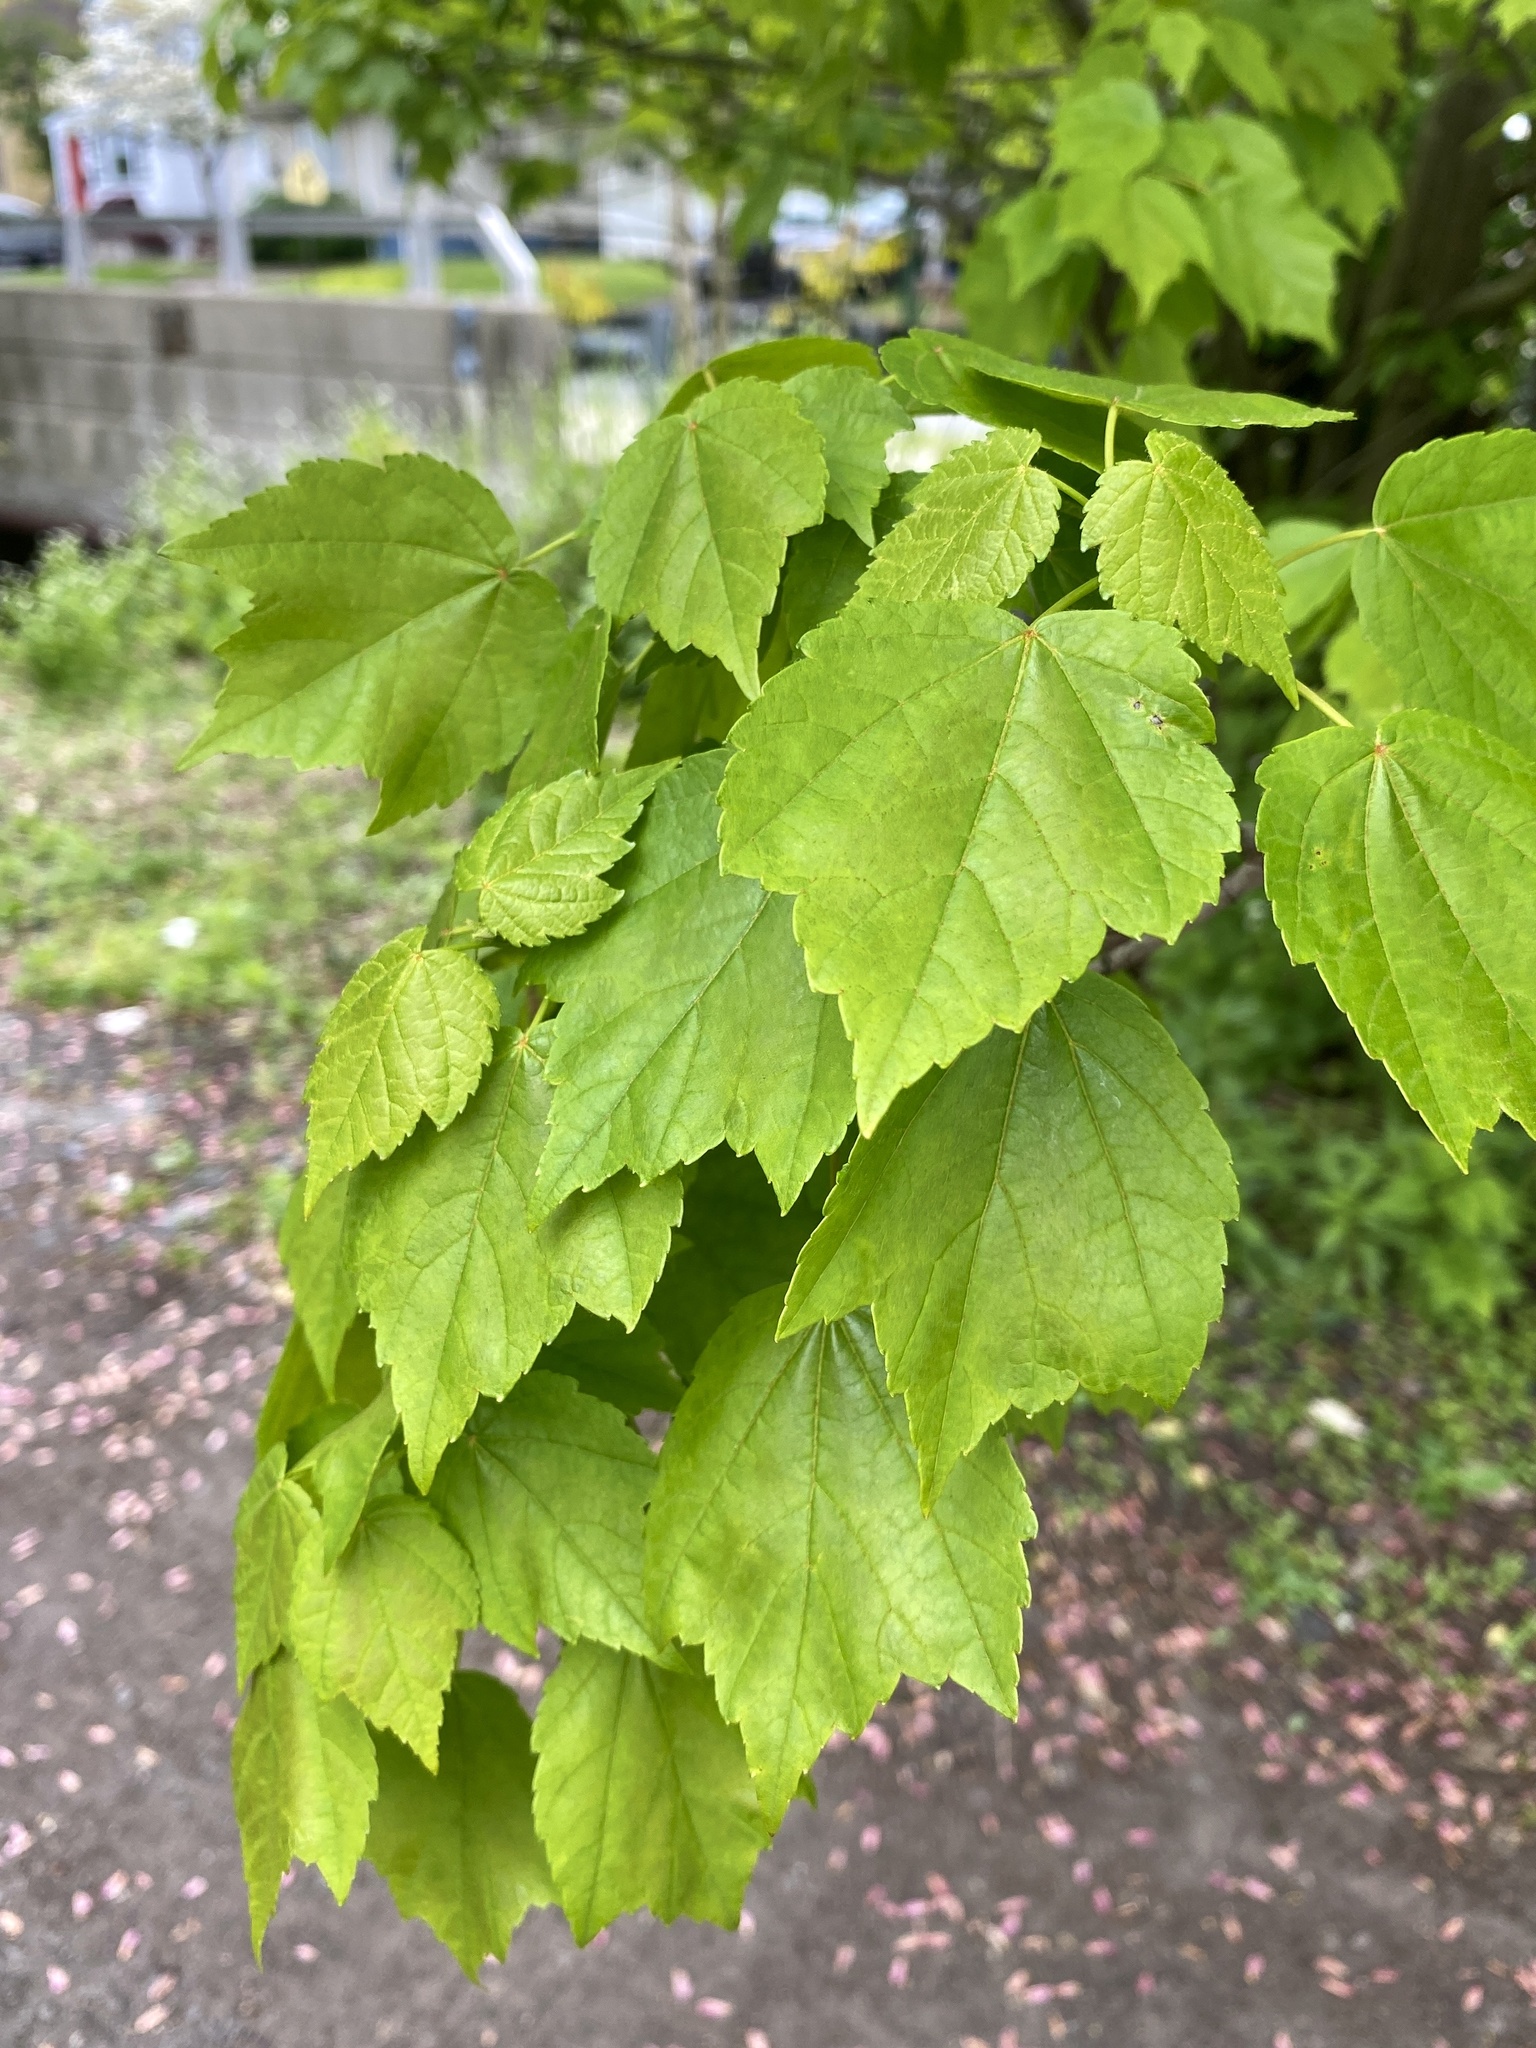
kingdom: Plantae
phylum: Tracheophyta
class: Magnoliopsida
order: Sapindales
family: Sapindaceae
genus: Acer
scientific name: Acer rubrum
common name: Red maple
